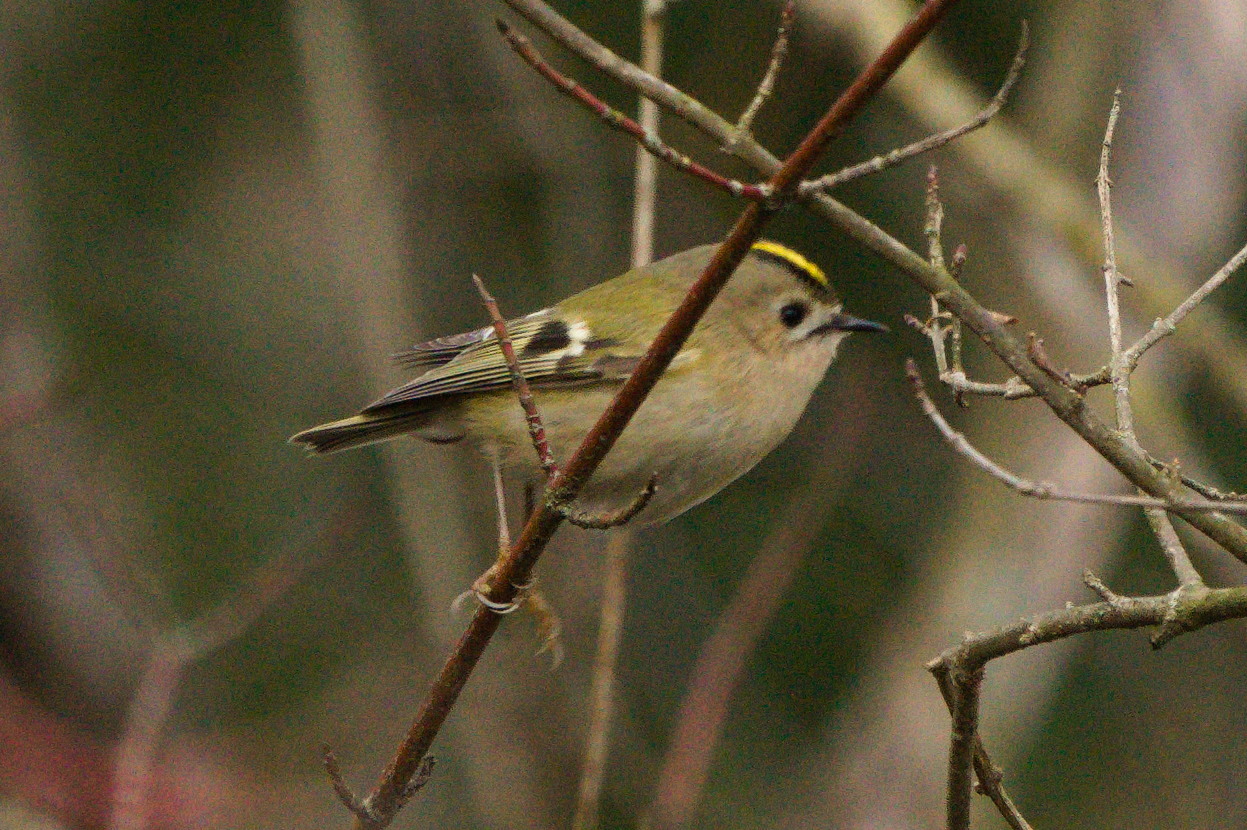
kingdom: Animalia
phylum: Chordata
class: Aves
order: Passeriformes
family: Regulidae
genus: Regulus
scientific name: Regulus regulus
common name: Goldcrest
